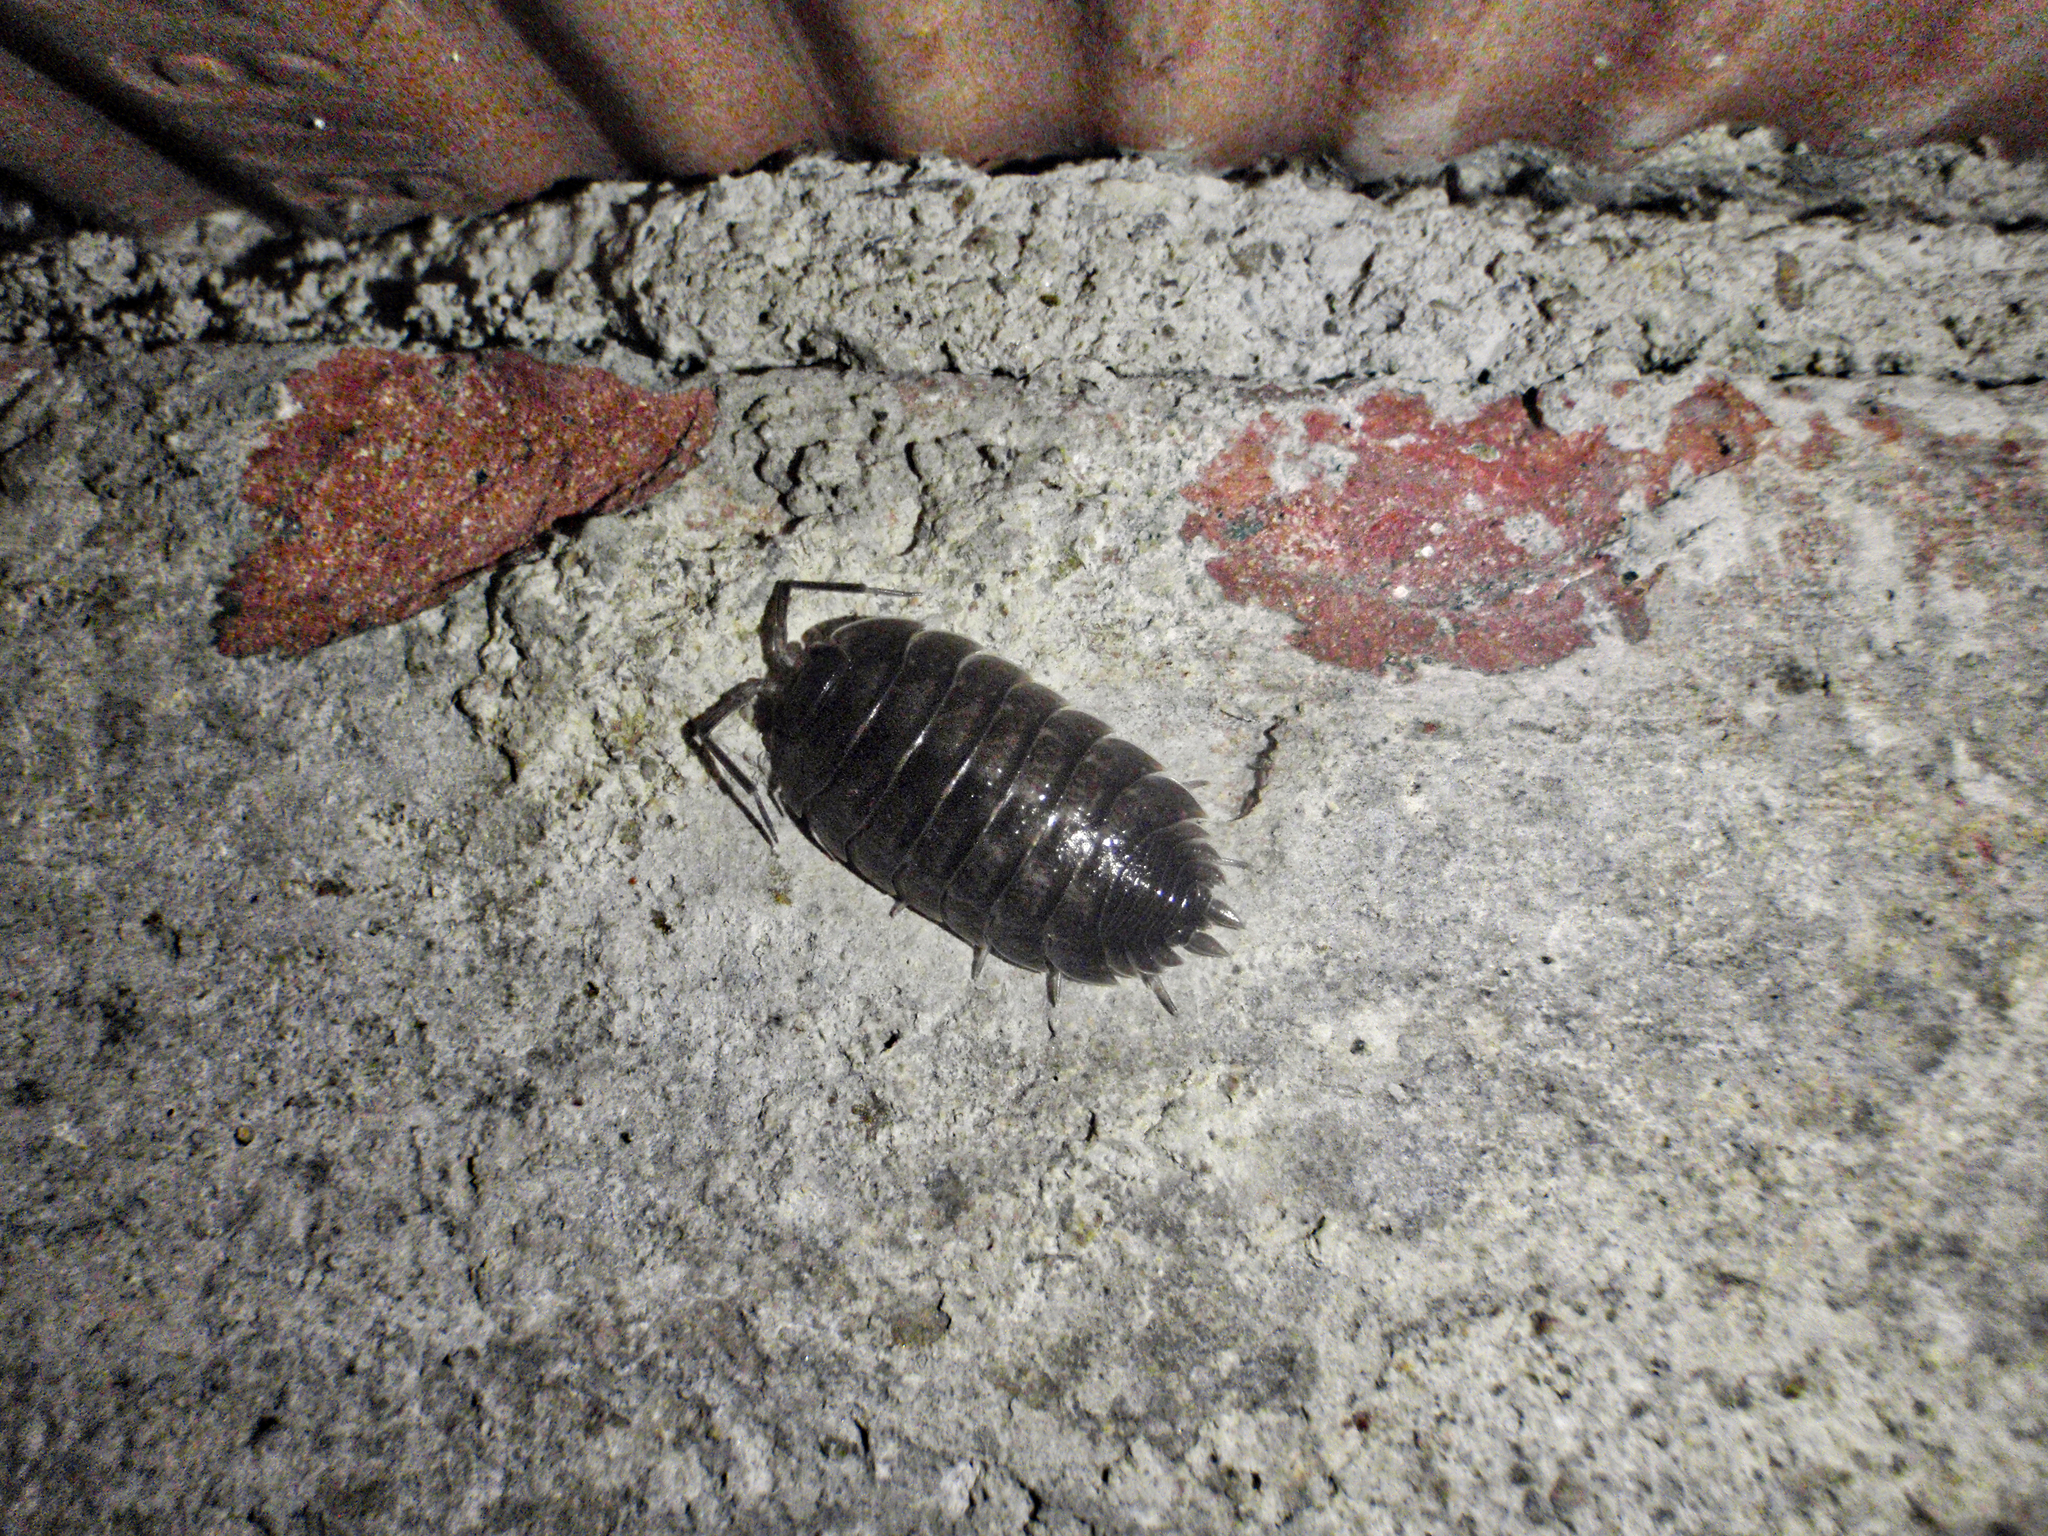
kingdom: Animalia
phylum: Arthropoda
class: Malacostraca
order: Isopoda
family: Porcellionidae
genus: Porcellio
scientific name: Porcellio obsoletus
